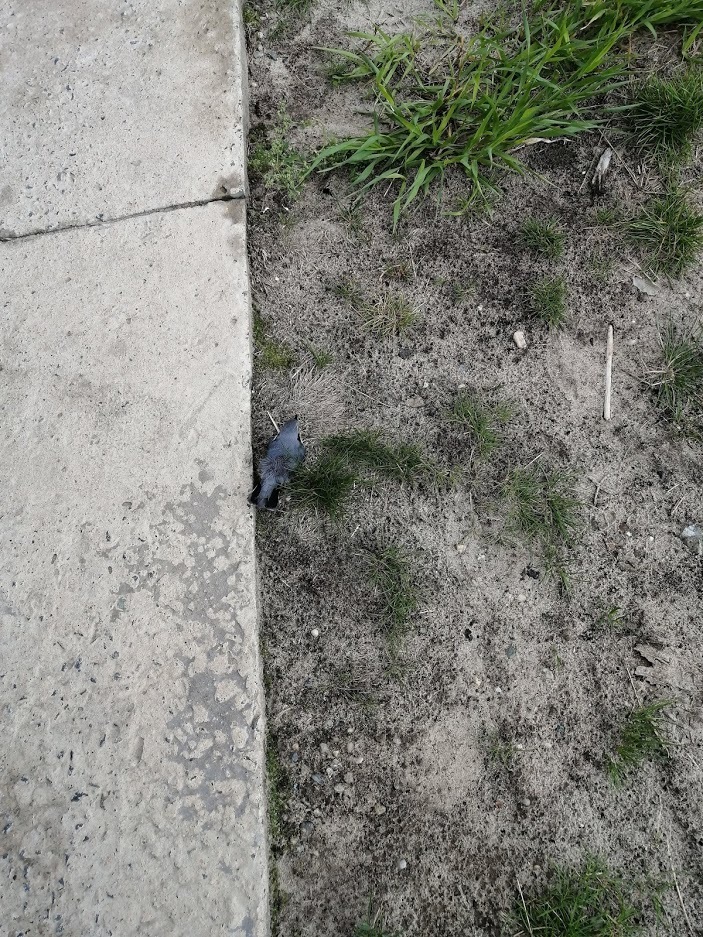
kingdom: Animalia
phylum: Chordata
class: Aves
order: Passeriformes
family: Sittidae
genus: Sitta
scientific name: Sitta europaea
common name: Eurasian nuthatch
